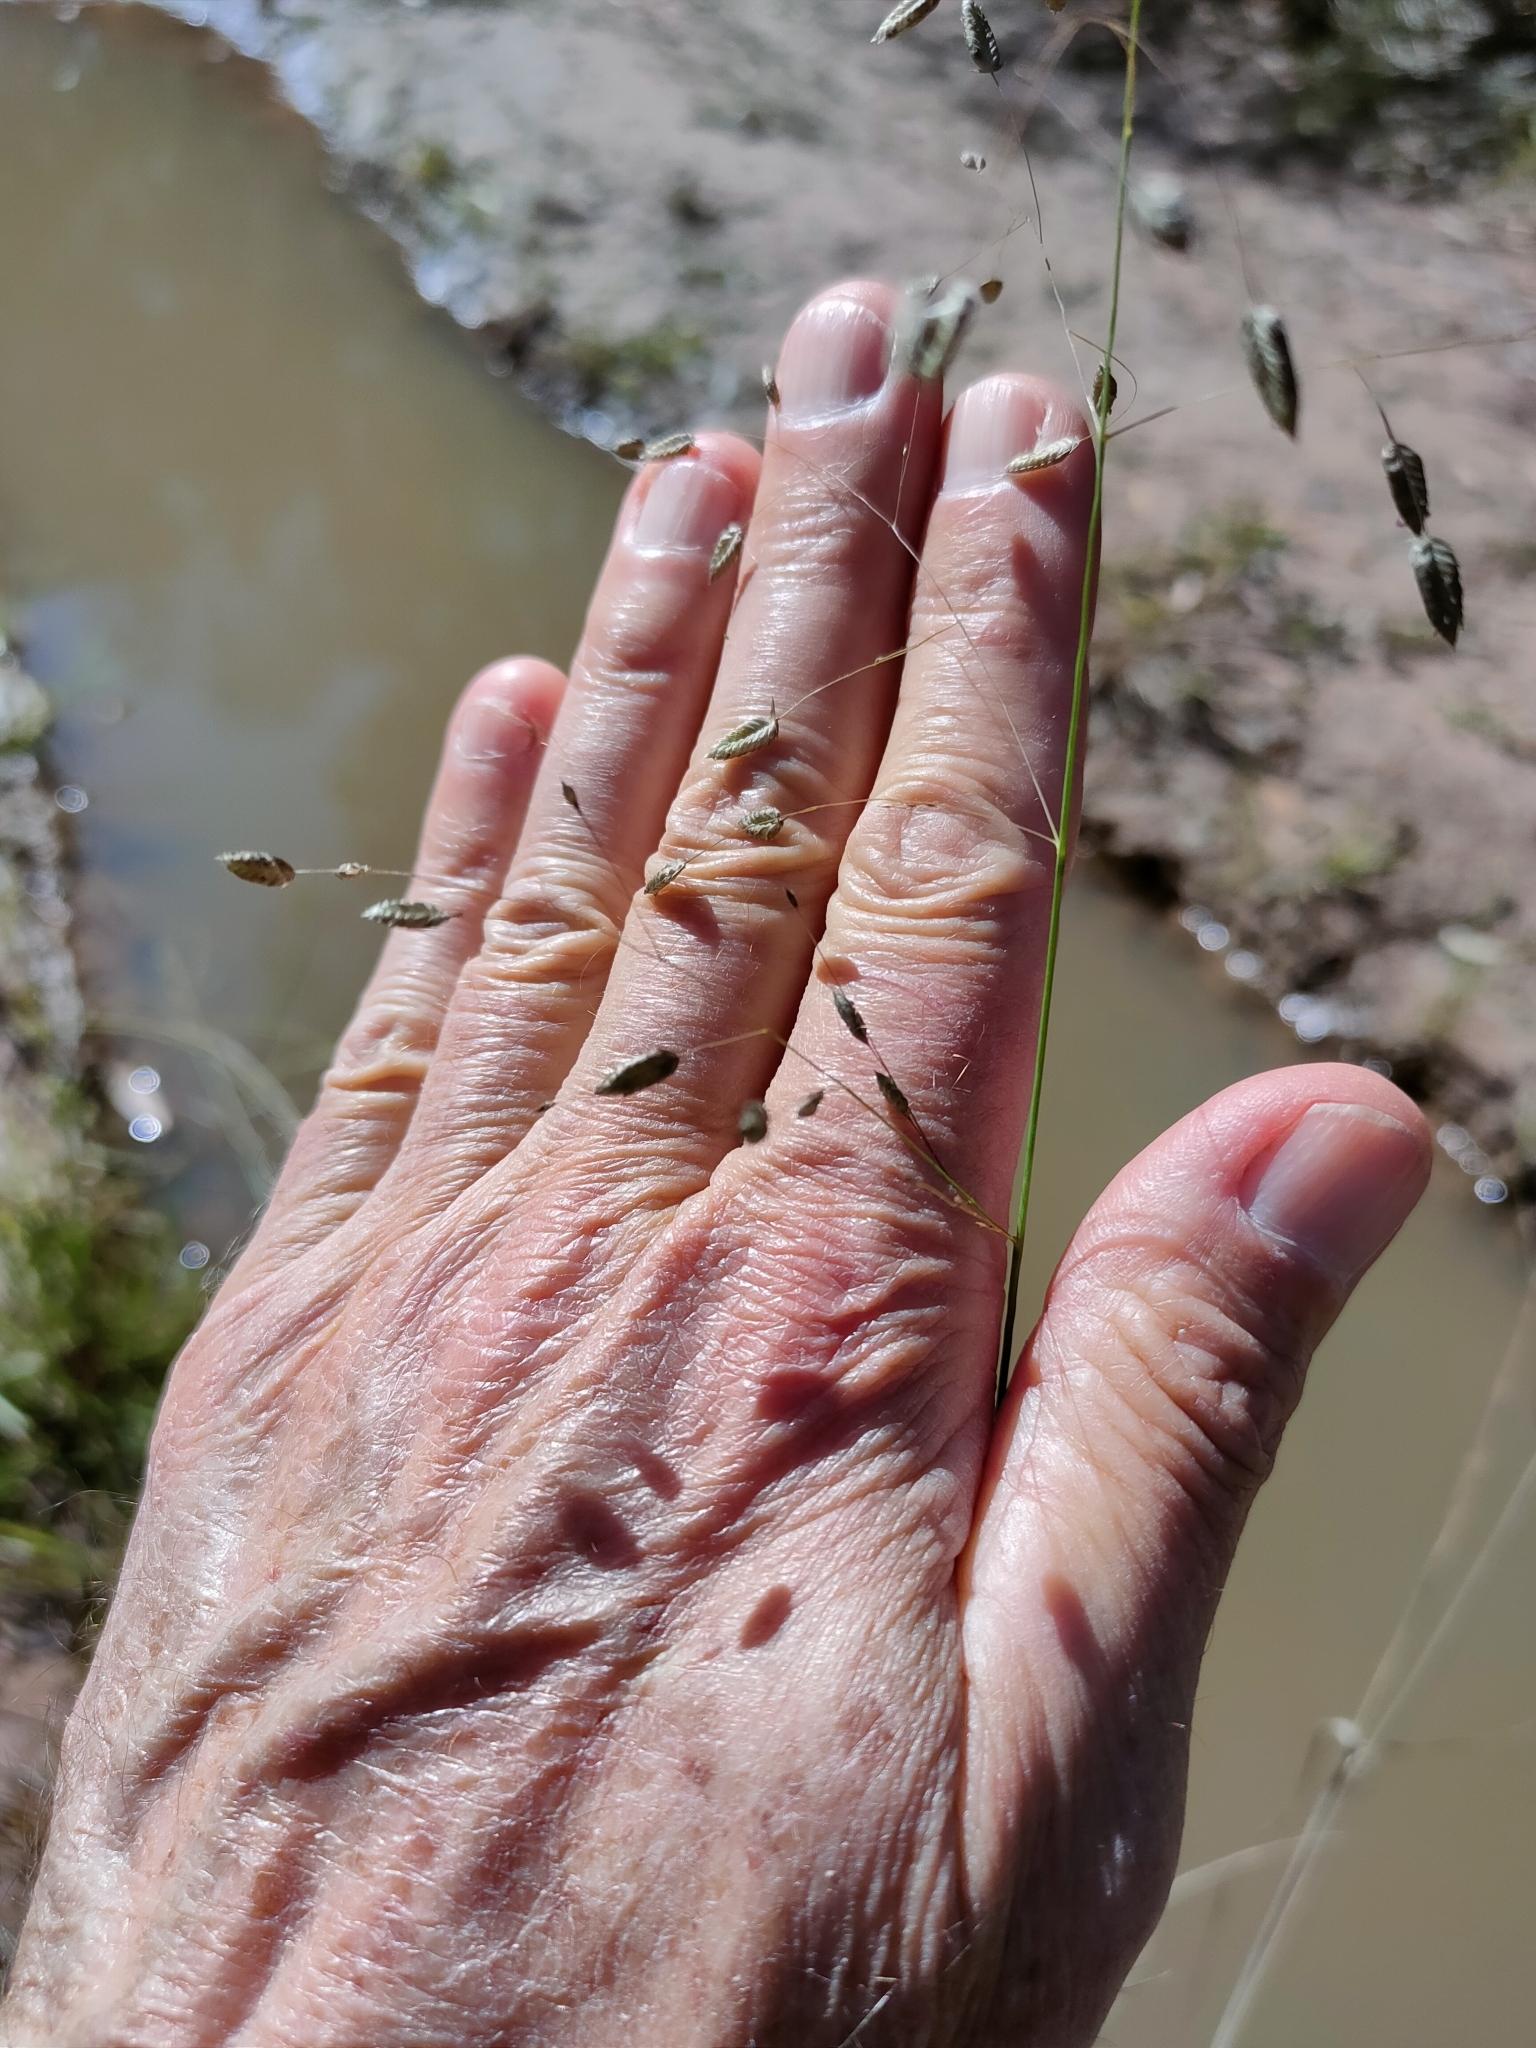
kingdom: Plantae
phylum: Tracheophyta
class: Liliopsida
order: Poales
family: Poaceae
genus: Eragrostis
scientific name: Eragrostis paniciformis
